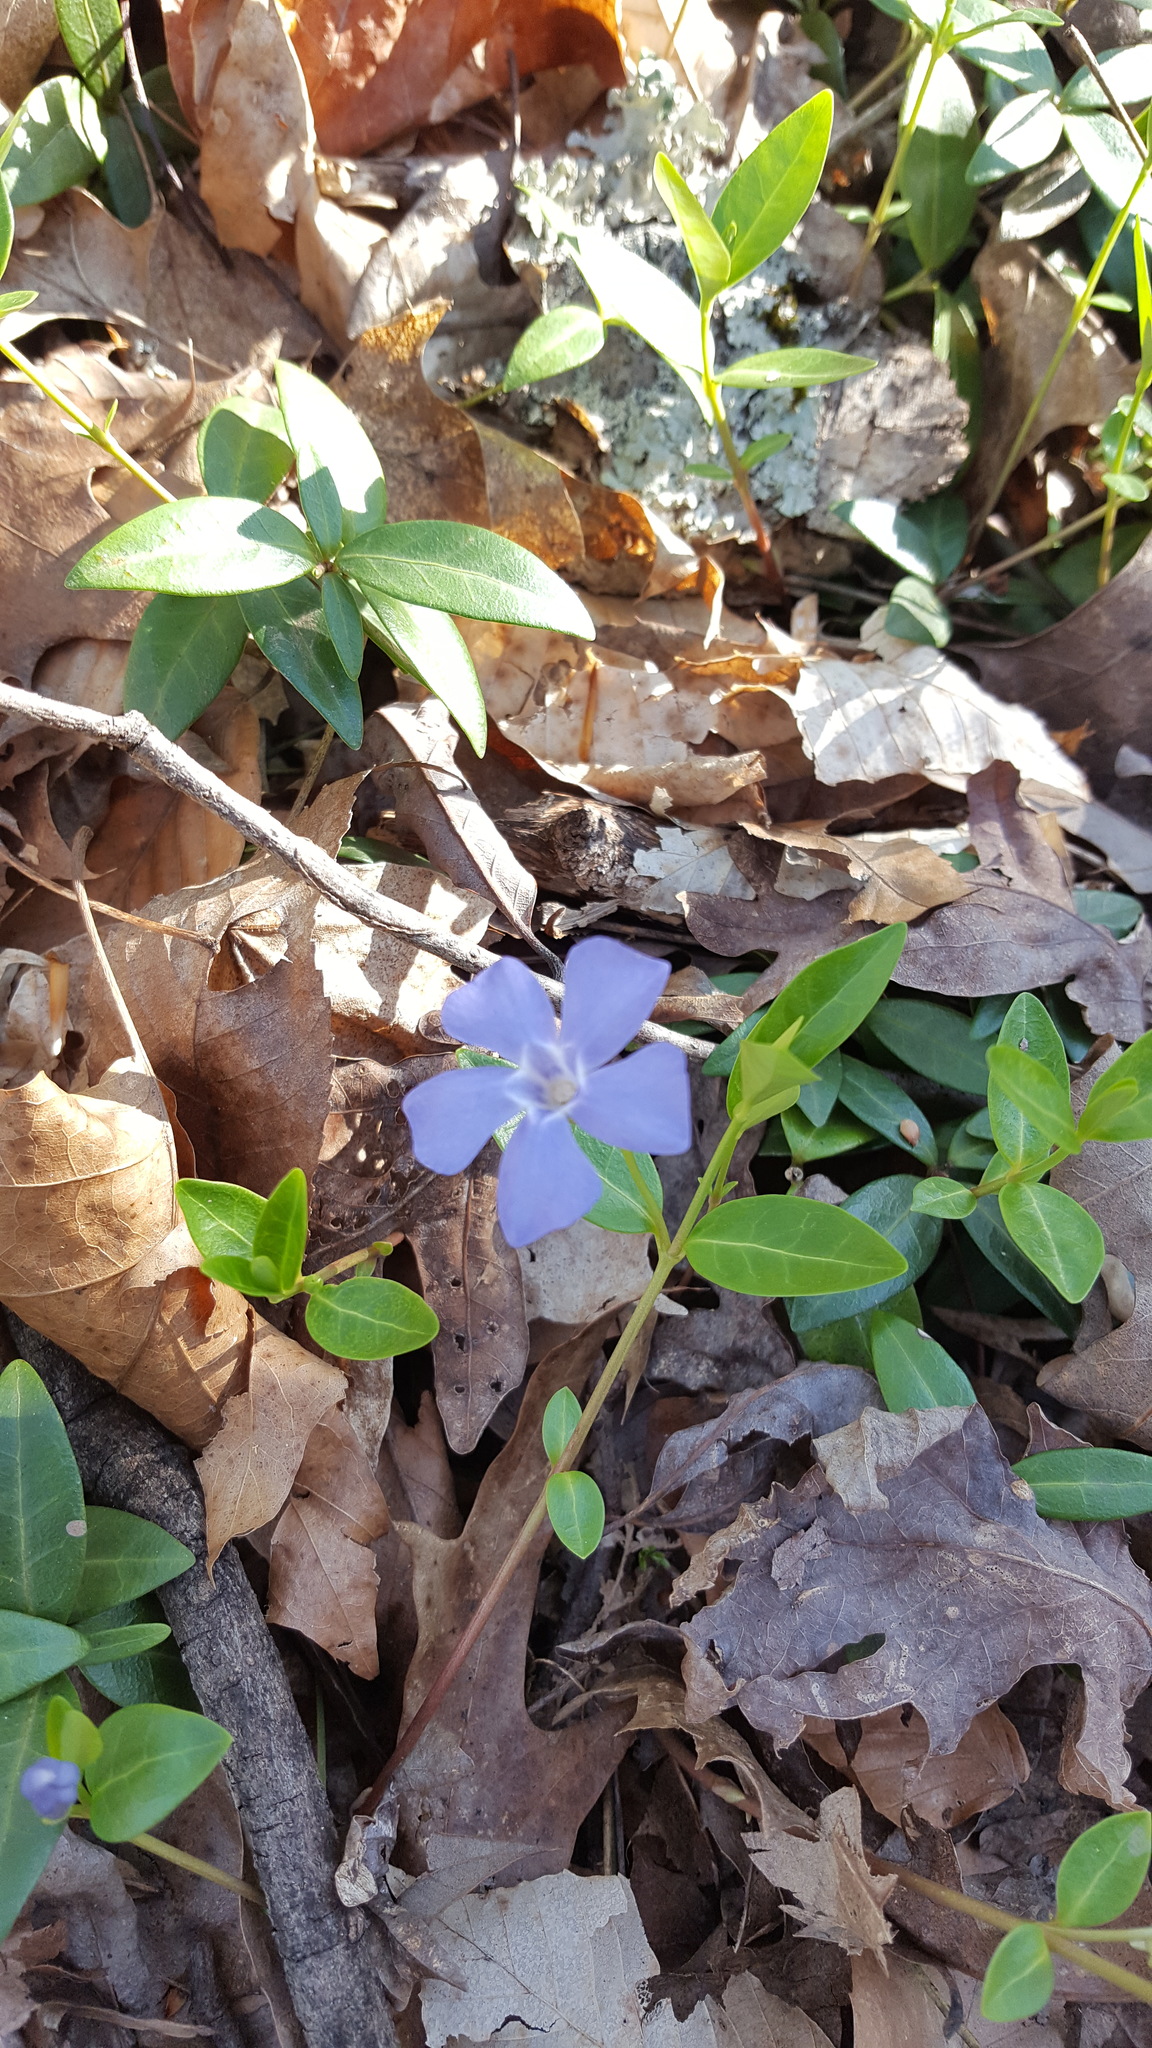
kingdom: Plantae
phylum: Tracheophyta
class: Magnoliopsida
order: Gentianales
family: Apocynaceae
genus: Vinca
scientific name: Vinca minor
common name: Lesser periwinkle
